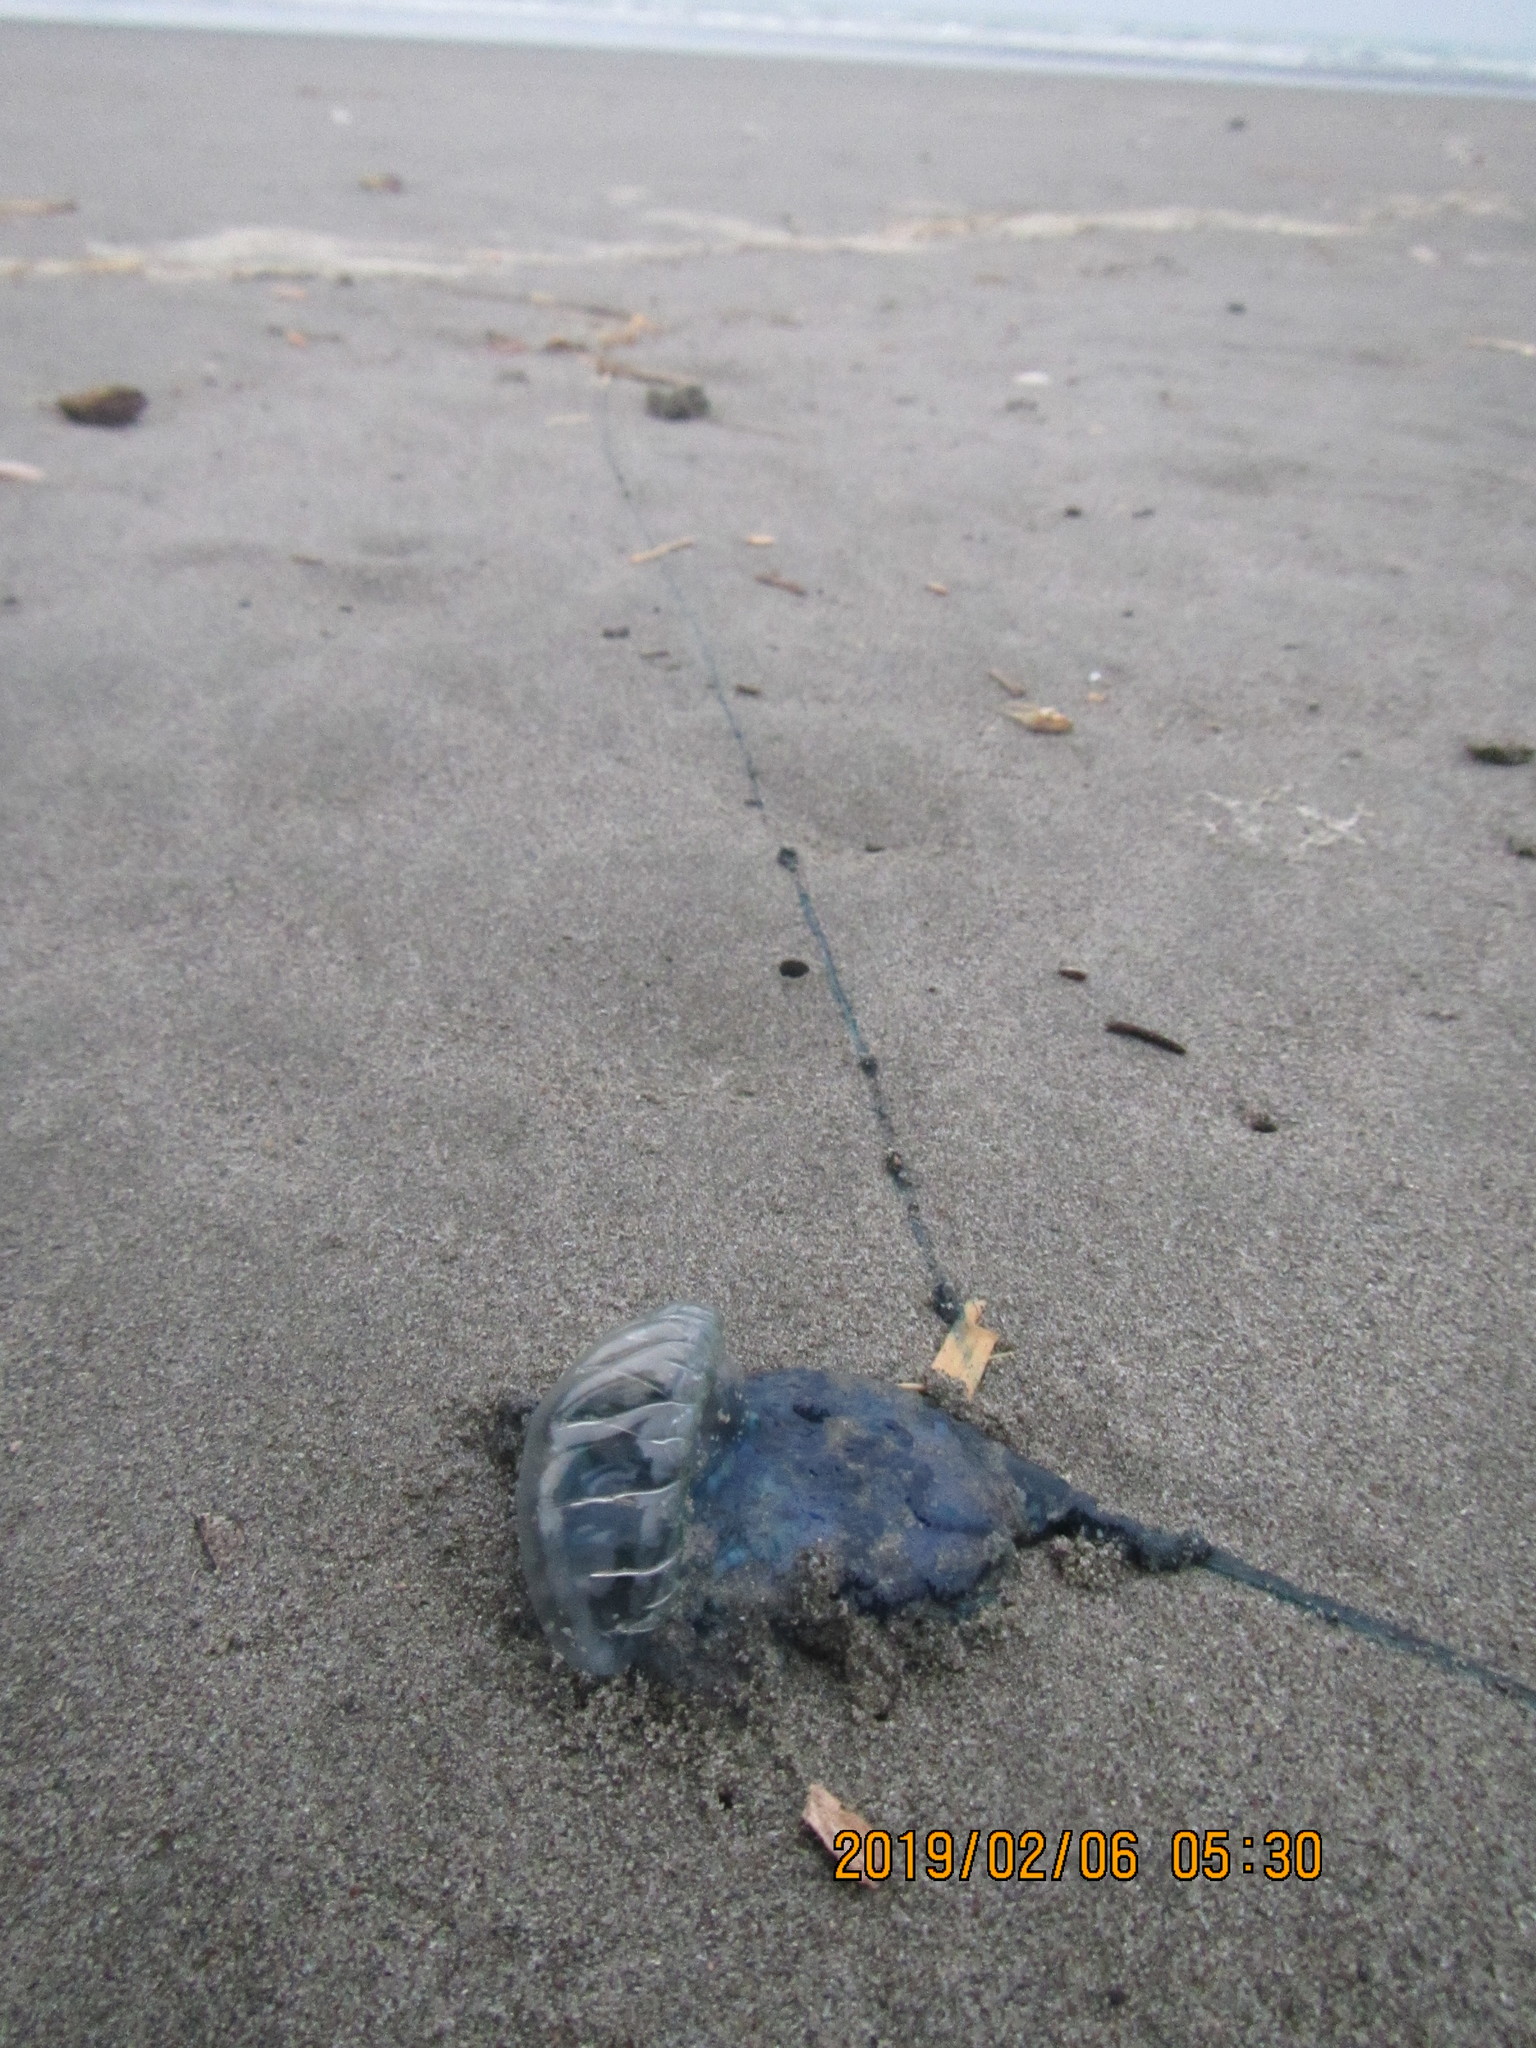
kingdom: Animalia
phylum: Cnidaria
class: Hydrozoa
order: Siphonophorae
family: Physaliidae
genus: Physalia
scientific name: Physalia physalis
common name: Portuguese man-of-war
